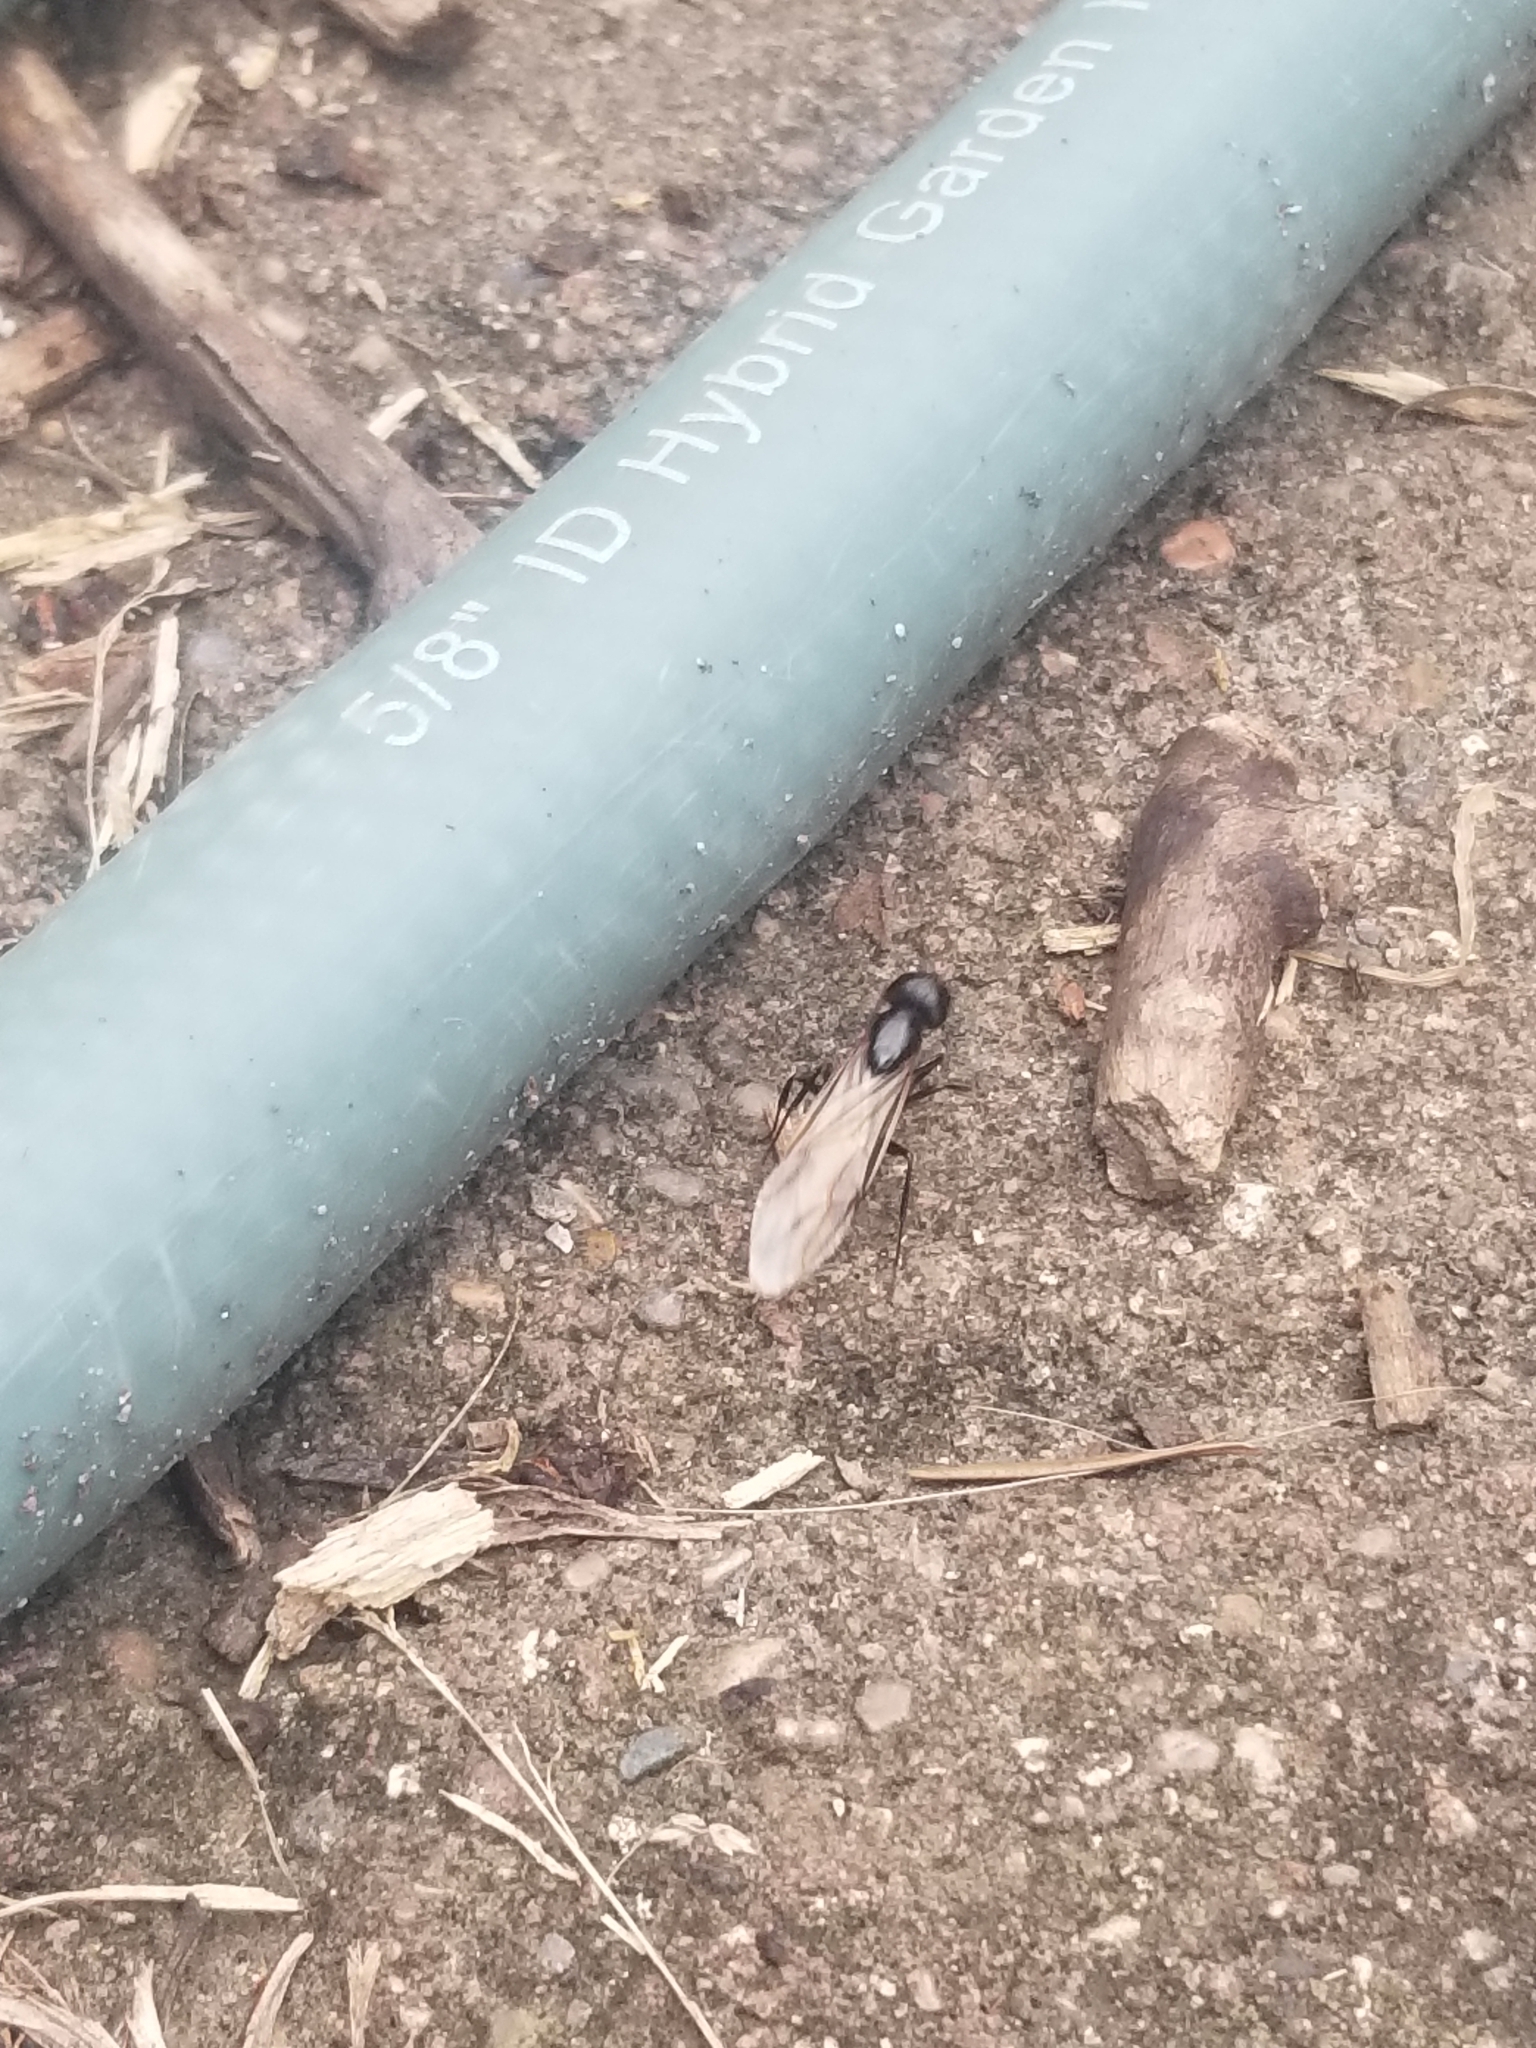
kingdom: Animalia
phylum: Arthropoda
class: Insecta
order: Hymenoptera
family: Formicidae
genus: Camponotus
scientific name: Camponotus pennsylvanicus
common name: Black carpenter ant
